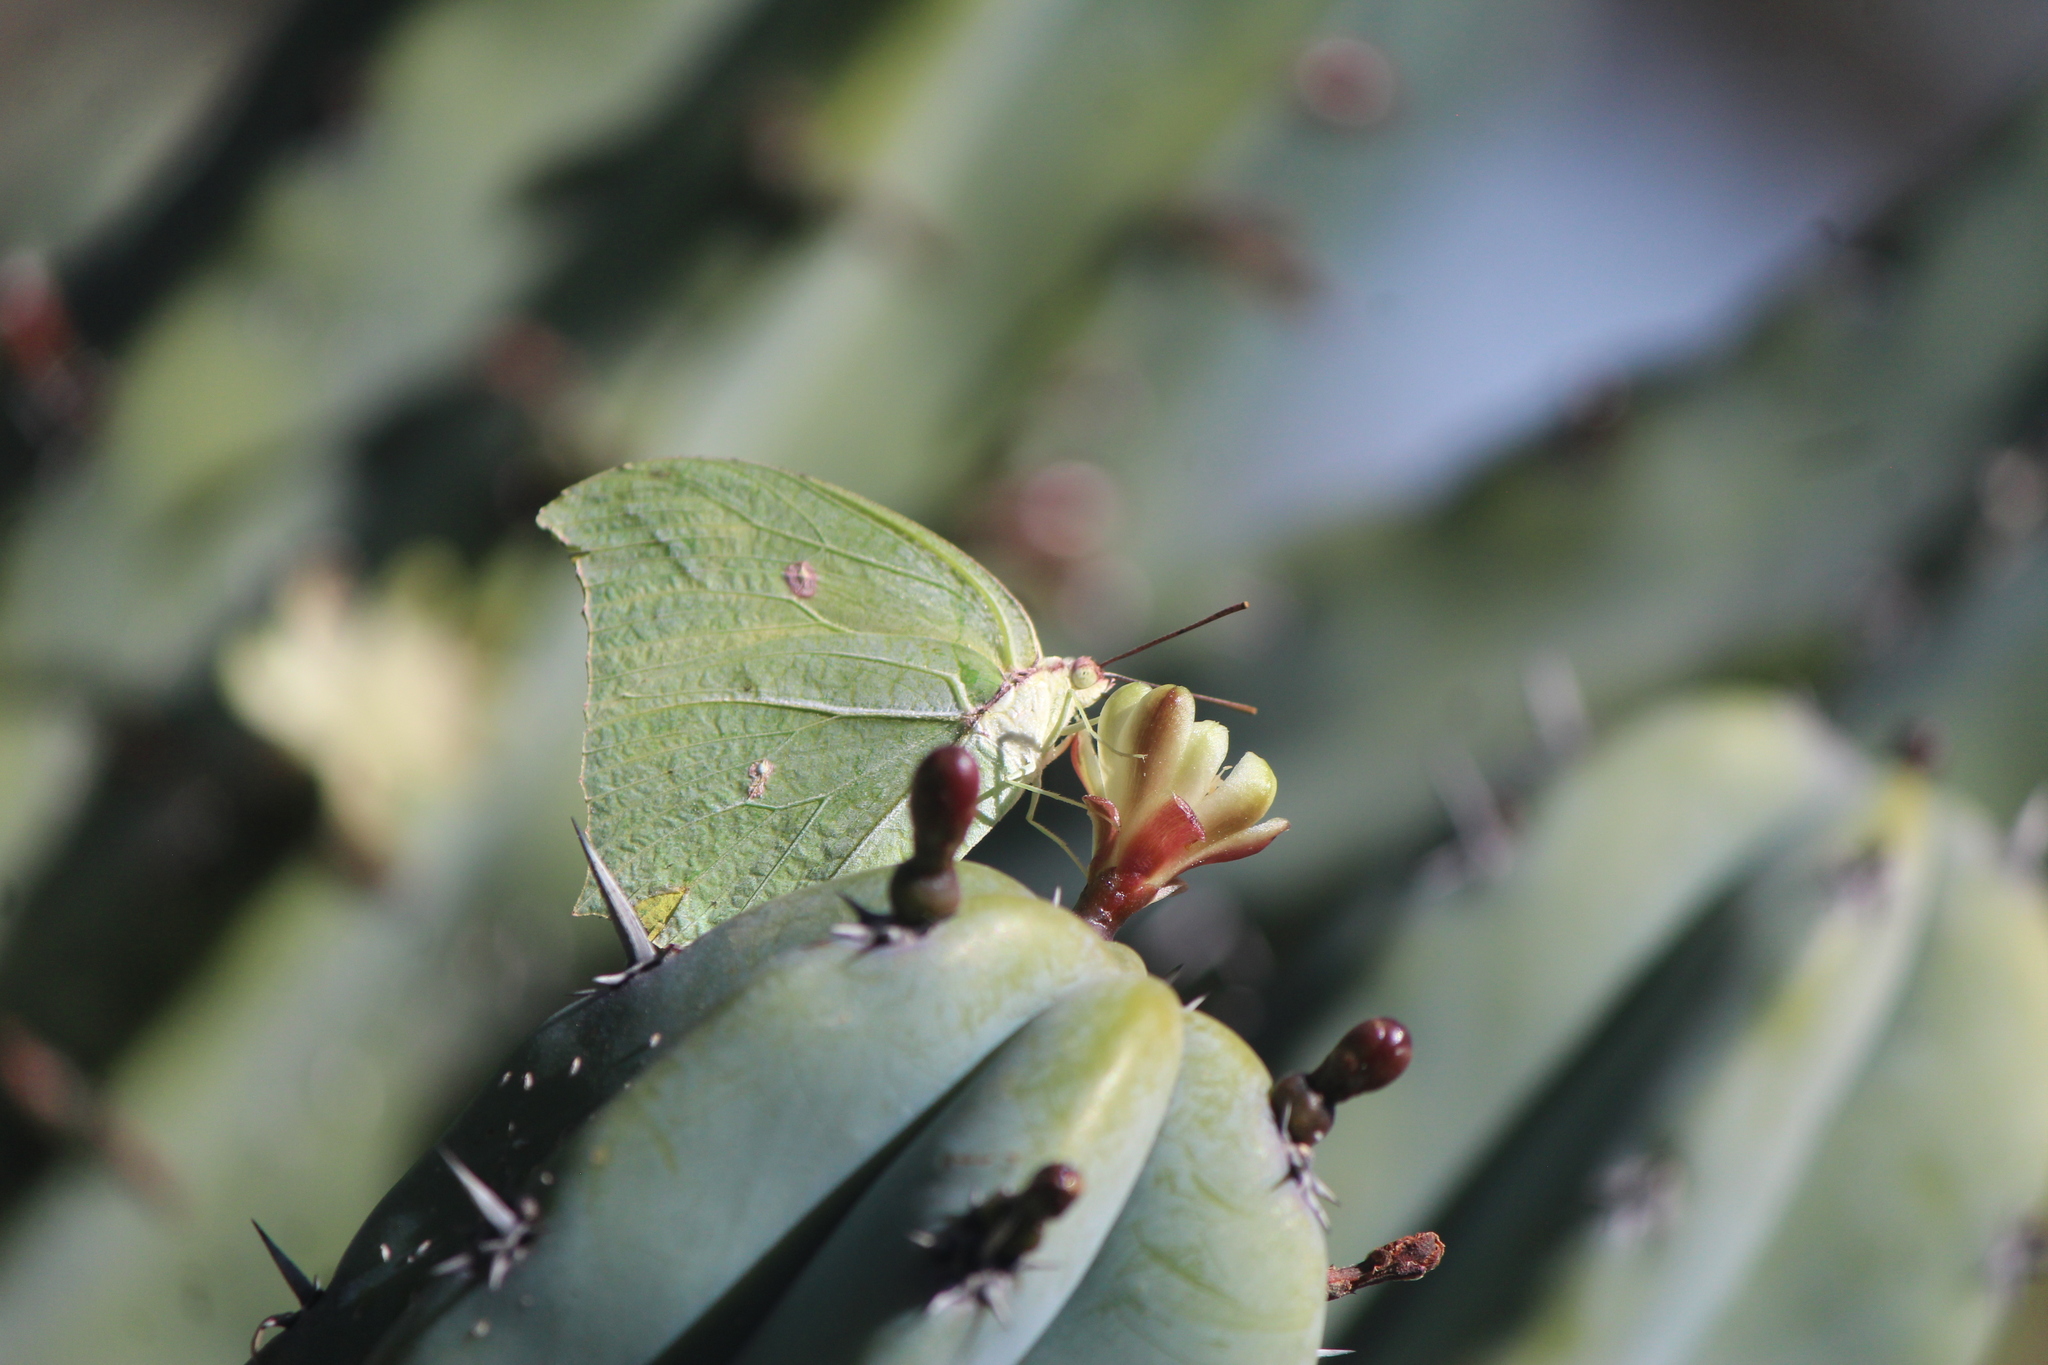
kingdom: Animalia
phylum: Arthropoda
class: Insecta
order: Lepidoptera
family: Pieridae
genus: Anteos
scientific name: Anteos maerula
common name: Angled sulphur
